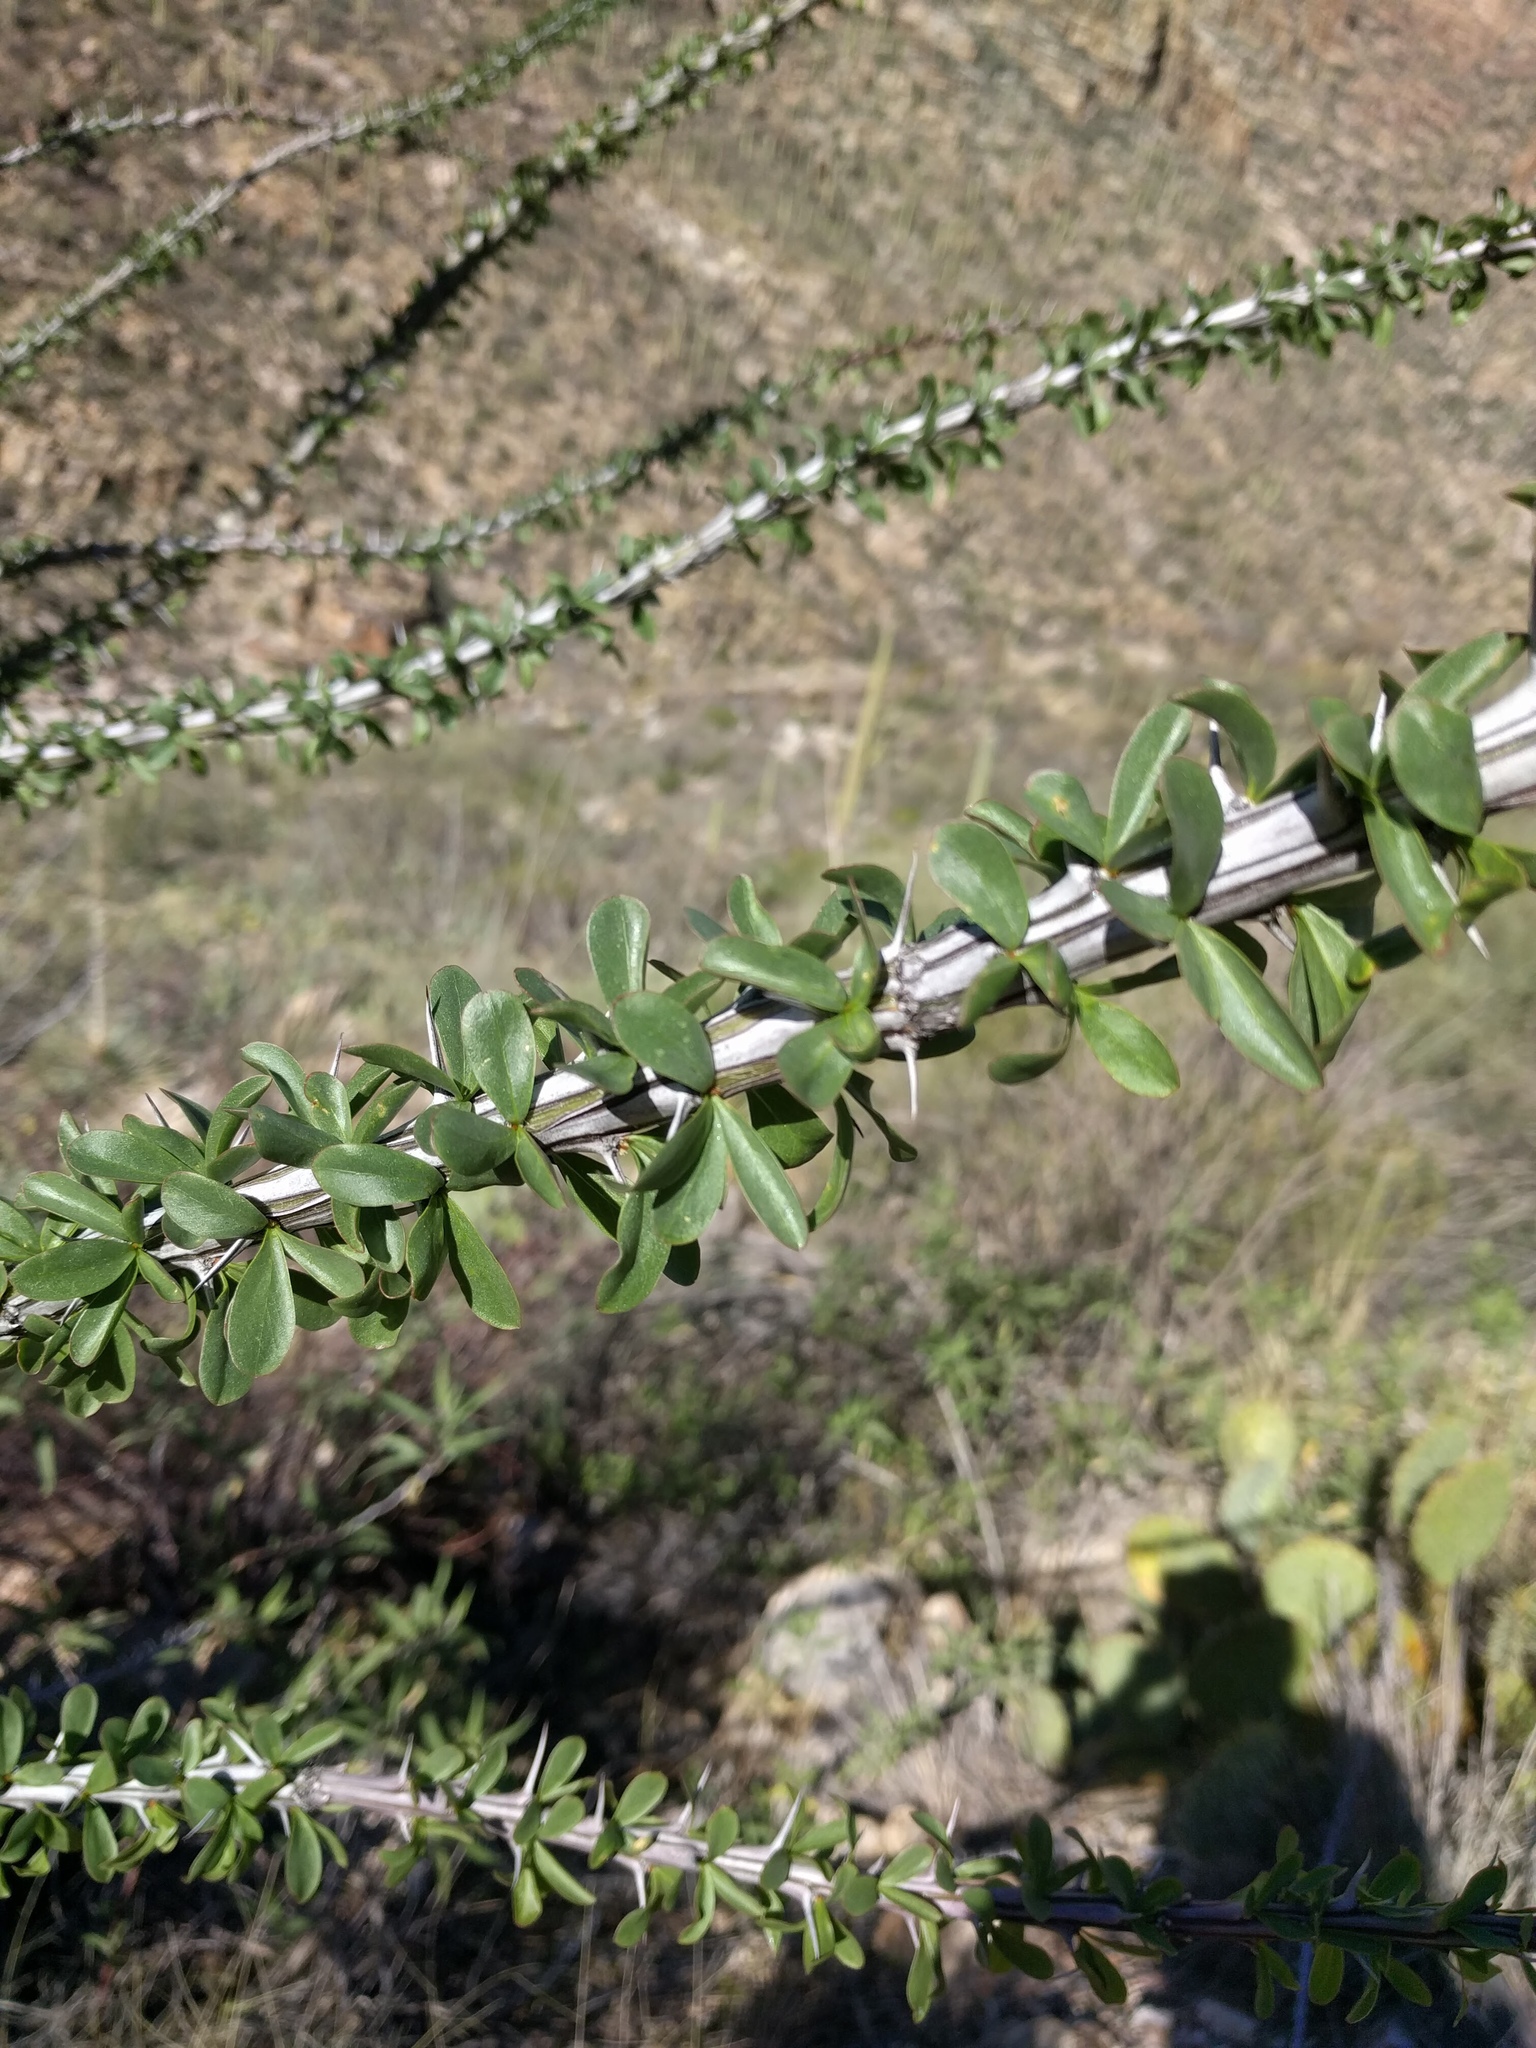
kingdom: Plantae
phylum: Tracheophyta
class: Magnoliopsida
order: Ericales
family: Fouquieriaceae
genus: Fouquieria
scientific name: Fouquieria splendens
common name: Vine-cactus
